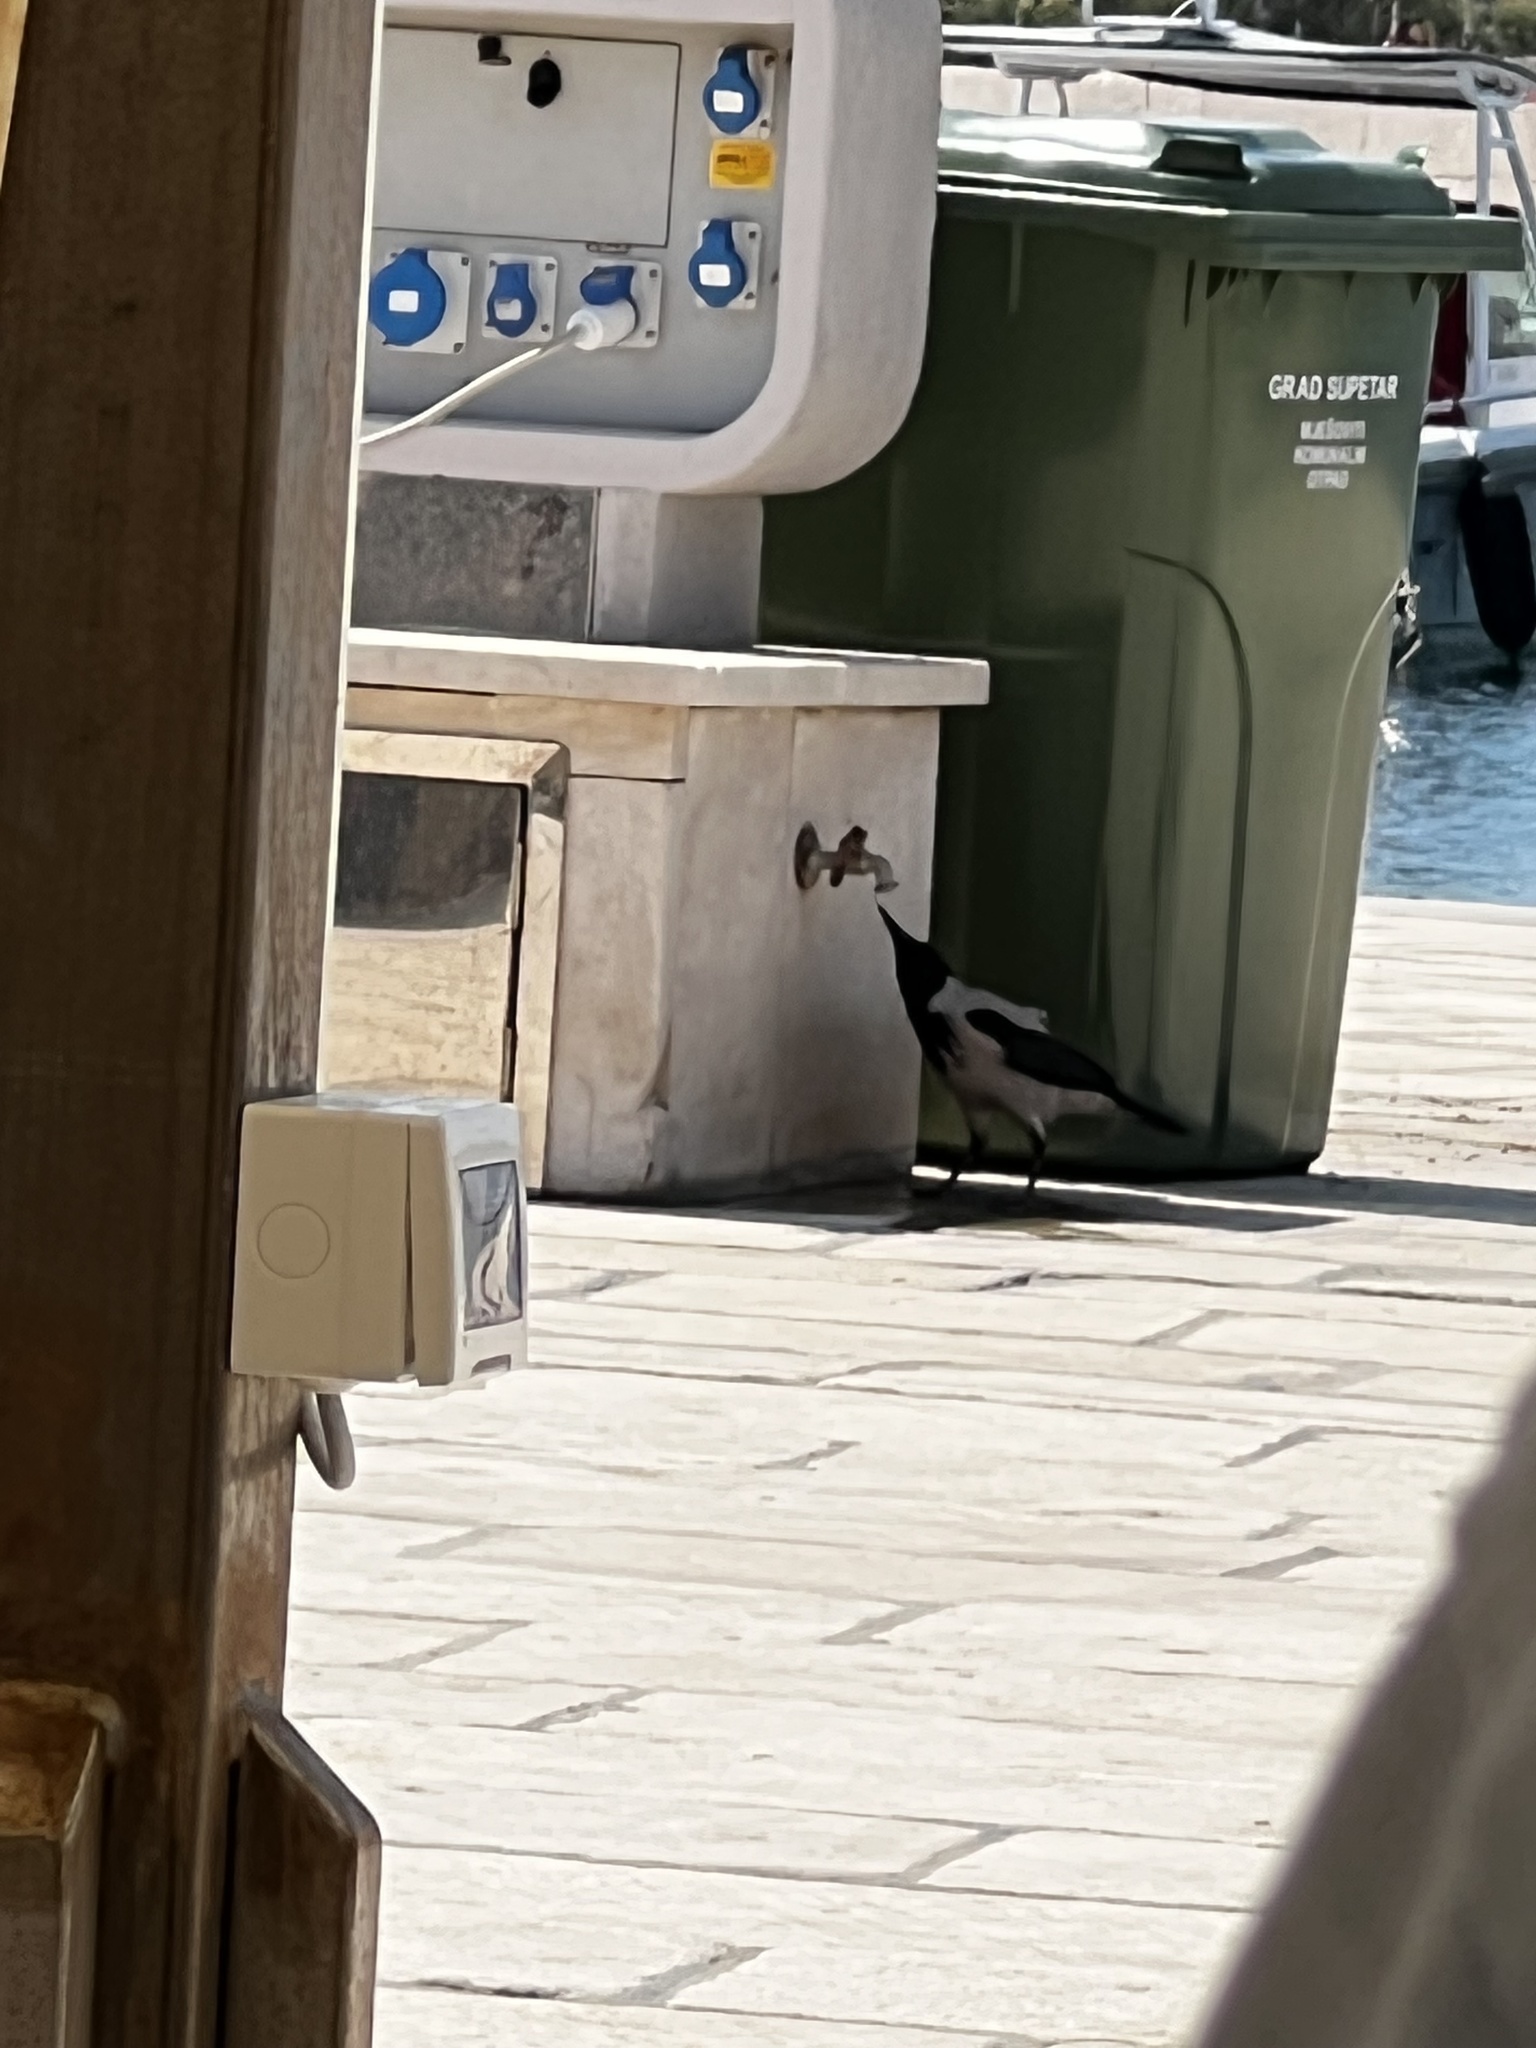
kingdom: Animalia
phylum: Chordata
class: Aves
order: Passeriformes
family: Corvidae
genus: Corvus
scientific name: Corvus cornix
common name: Hooded crow
